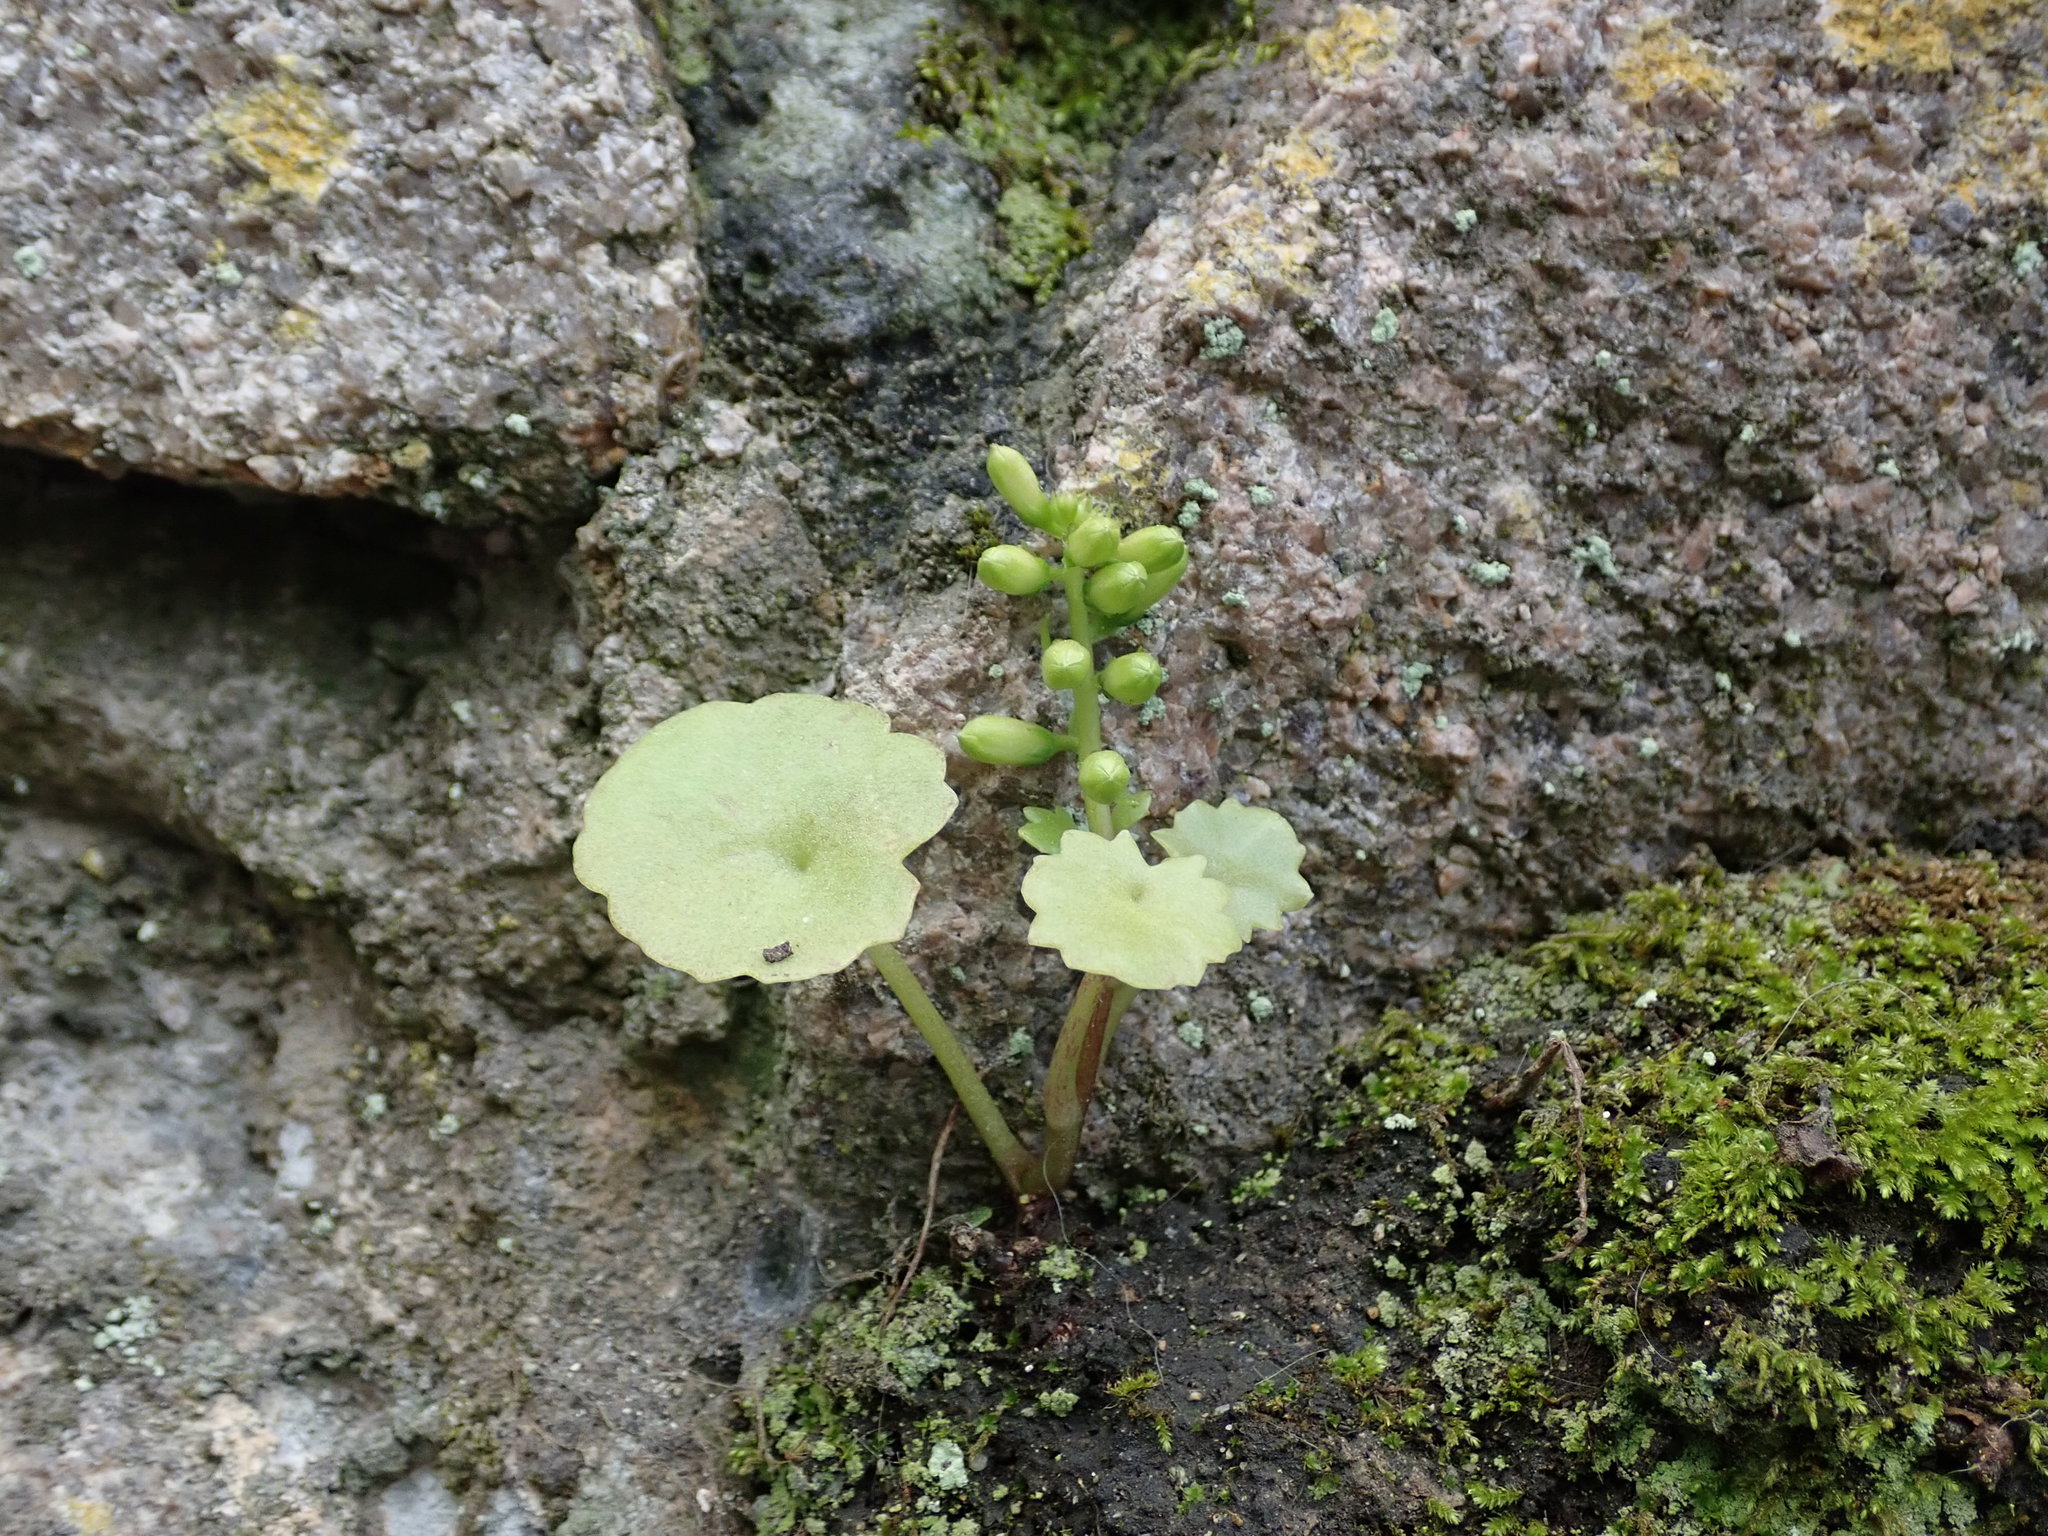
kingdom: Plantae
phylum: Tracheophyta
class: Magnoliopsida
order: Saxifragales
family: Crassulaceae
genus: Umbilicus
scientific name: Umbilicus rupestris
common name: Navelwort
